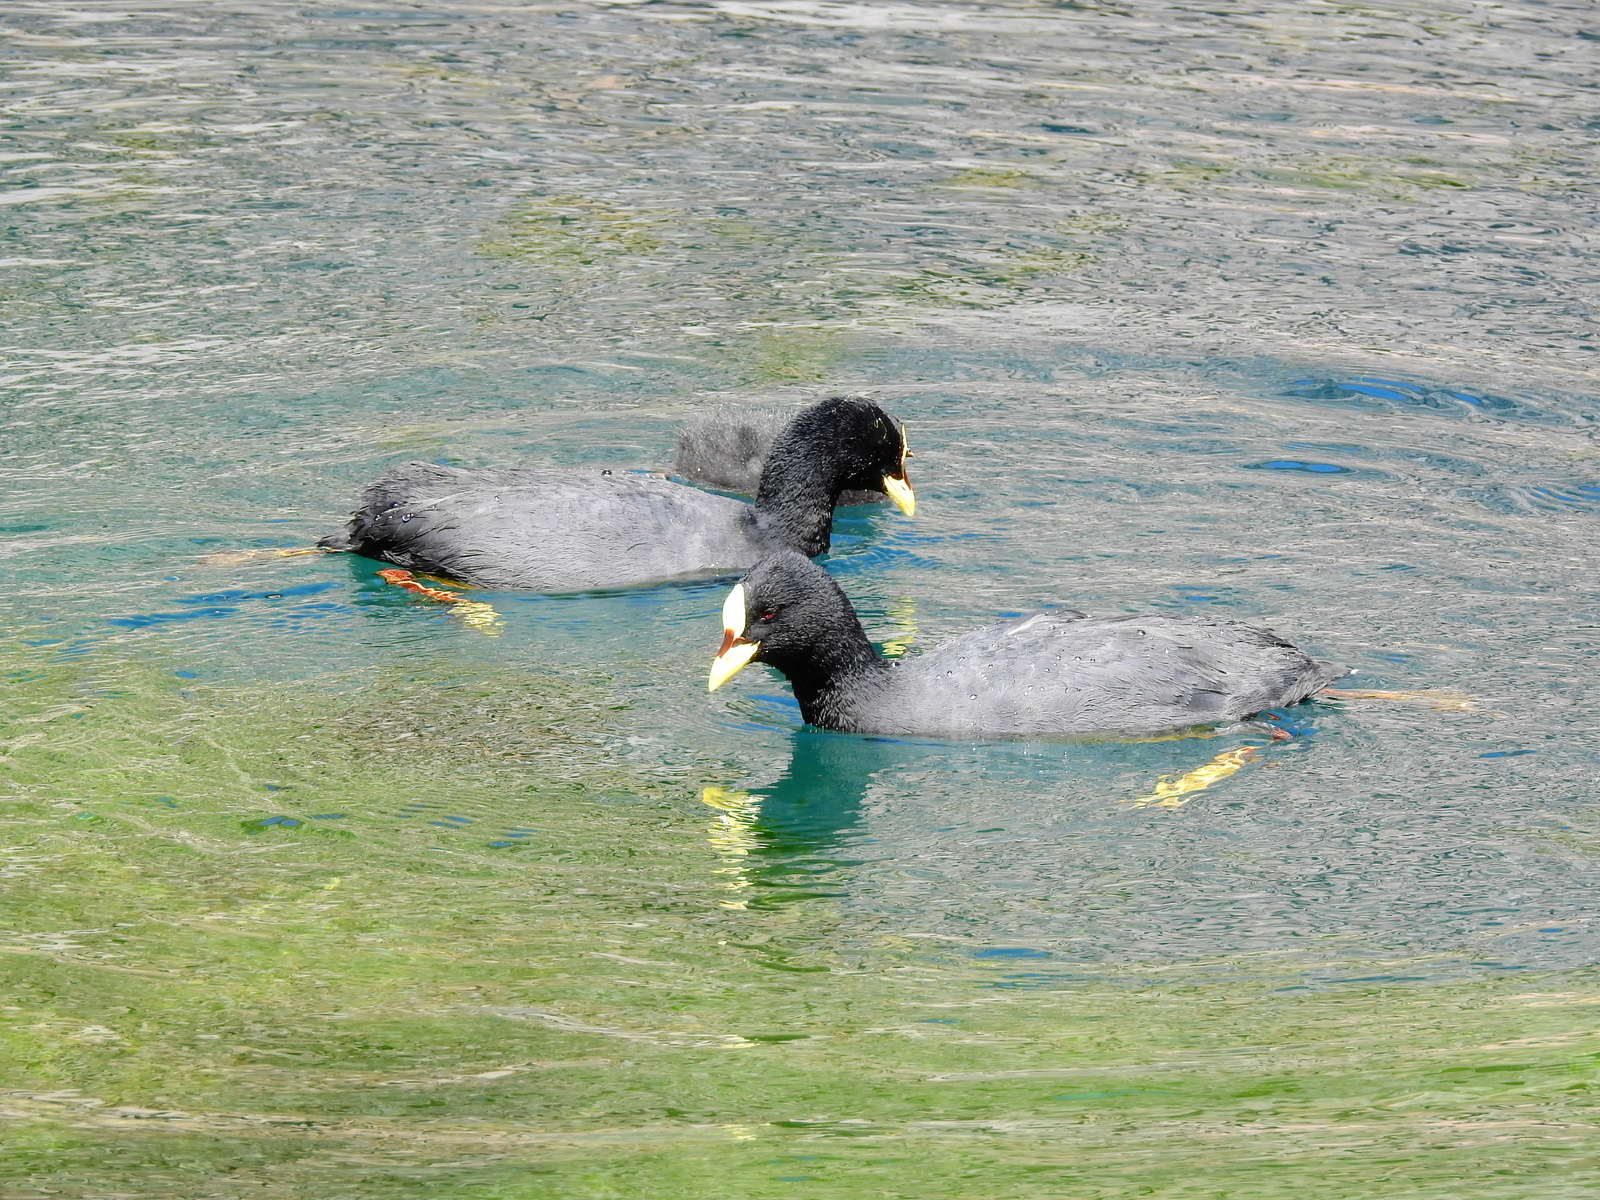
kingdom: Animalia
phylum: Chordata
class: Aves
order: Gruiformes
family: Rallidae
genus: Fulica
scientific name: Fulica armillata
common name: Red-gartered coot
